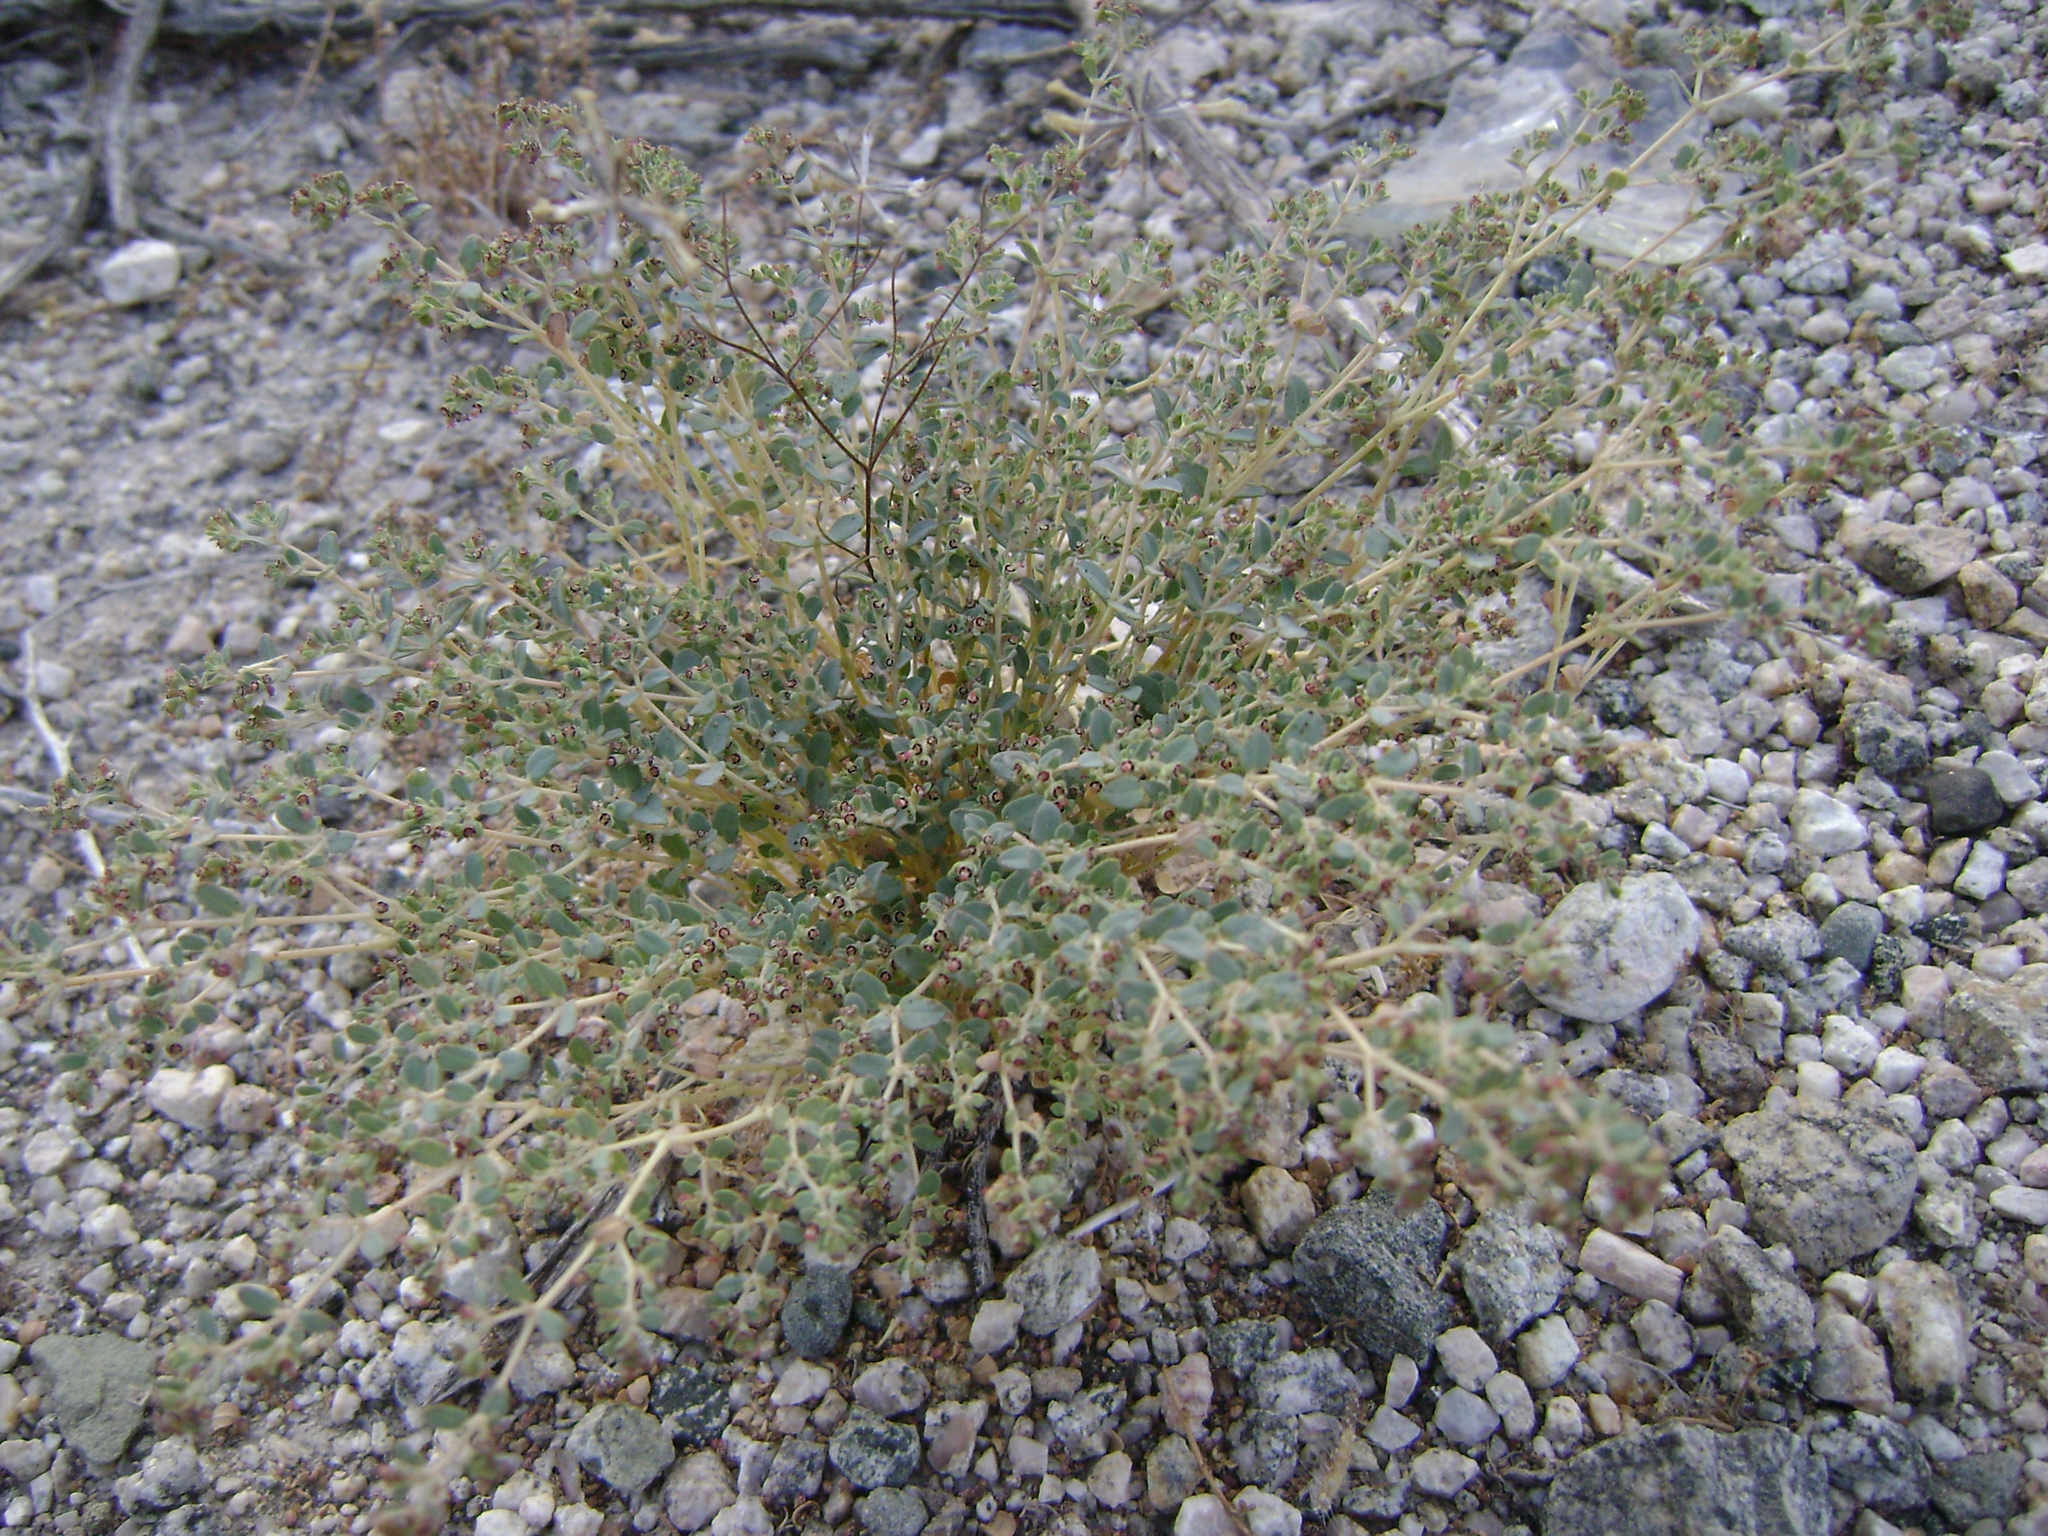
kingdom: Plantae
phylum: Tracheophyta
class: Magnoliopsida
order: Malpighiales
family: Euphorbiaceae
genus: Euphorbia
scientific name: Euphorbia polycarpa
